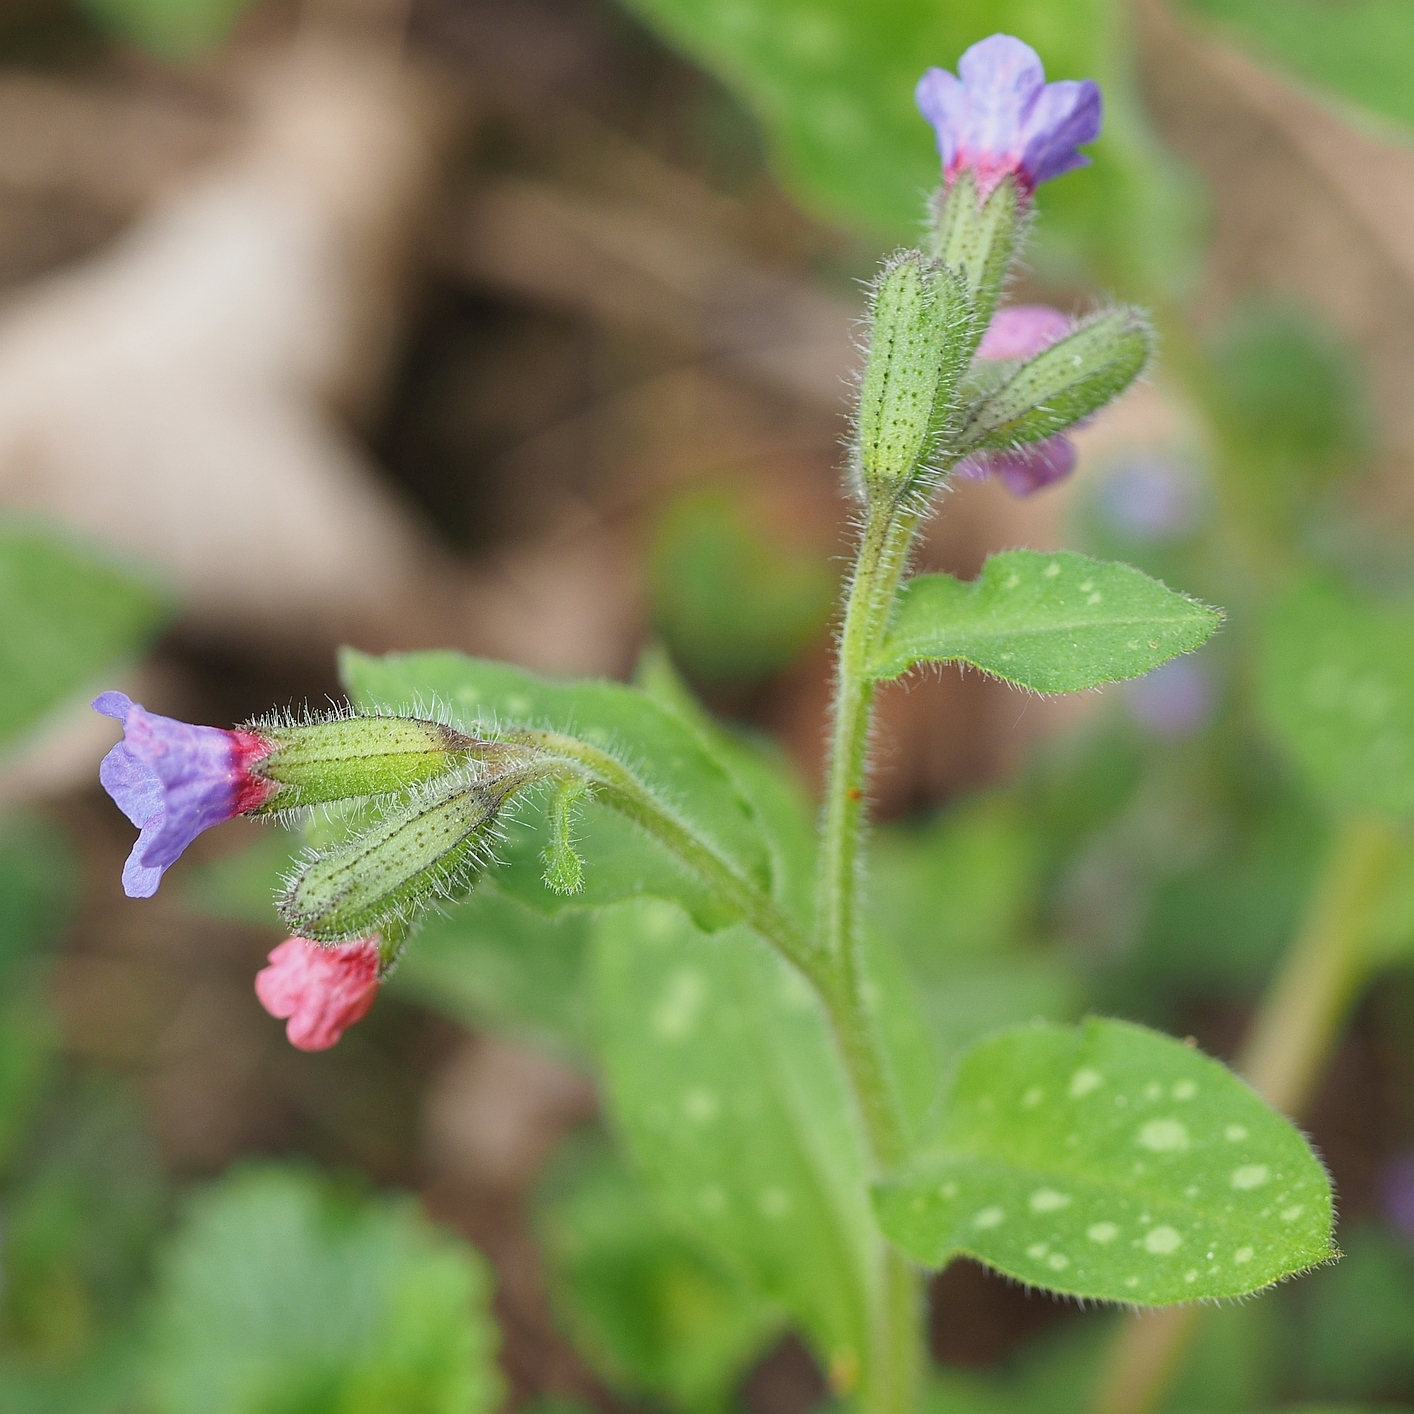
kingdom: Plantae
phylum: Tracheophyta
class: Magnoliopsida
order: Boraginales
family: Boraginaceae
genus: Pulmonaria
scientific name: Pulmonaria officinalis
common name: Lungwort
